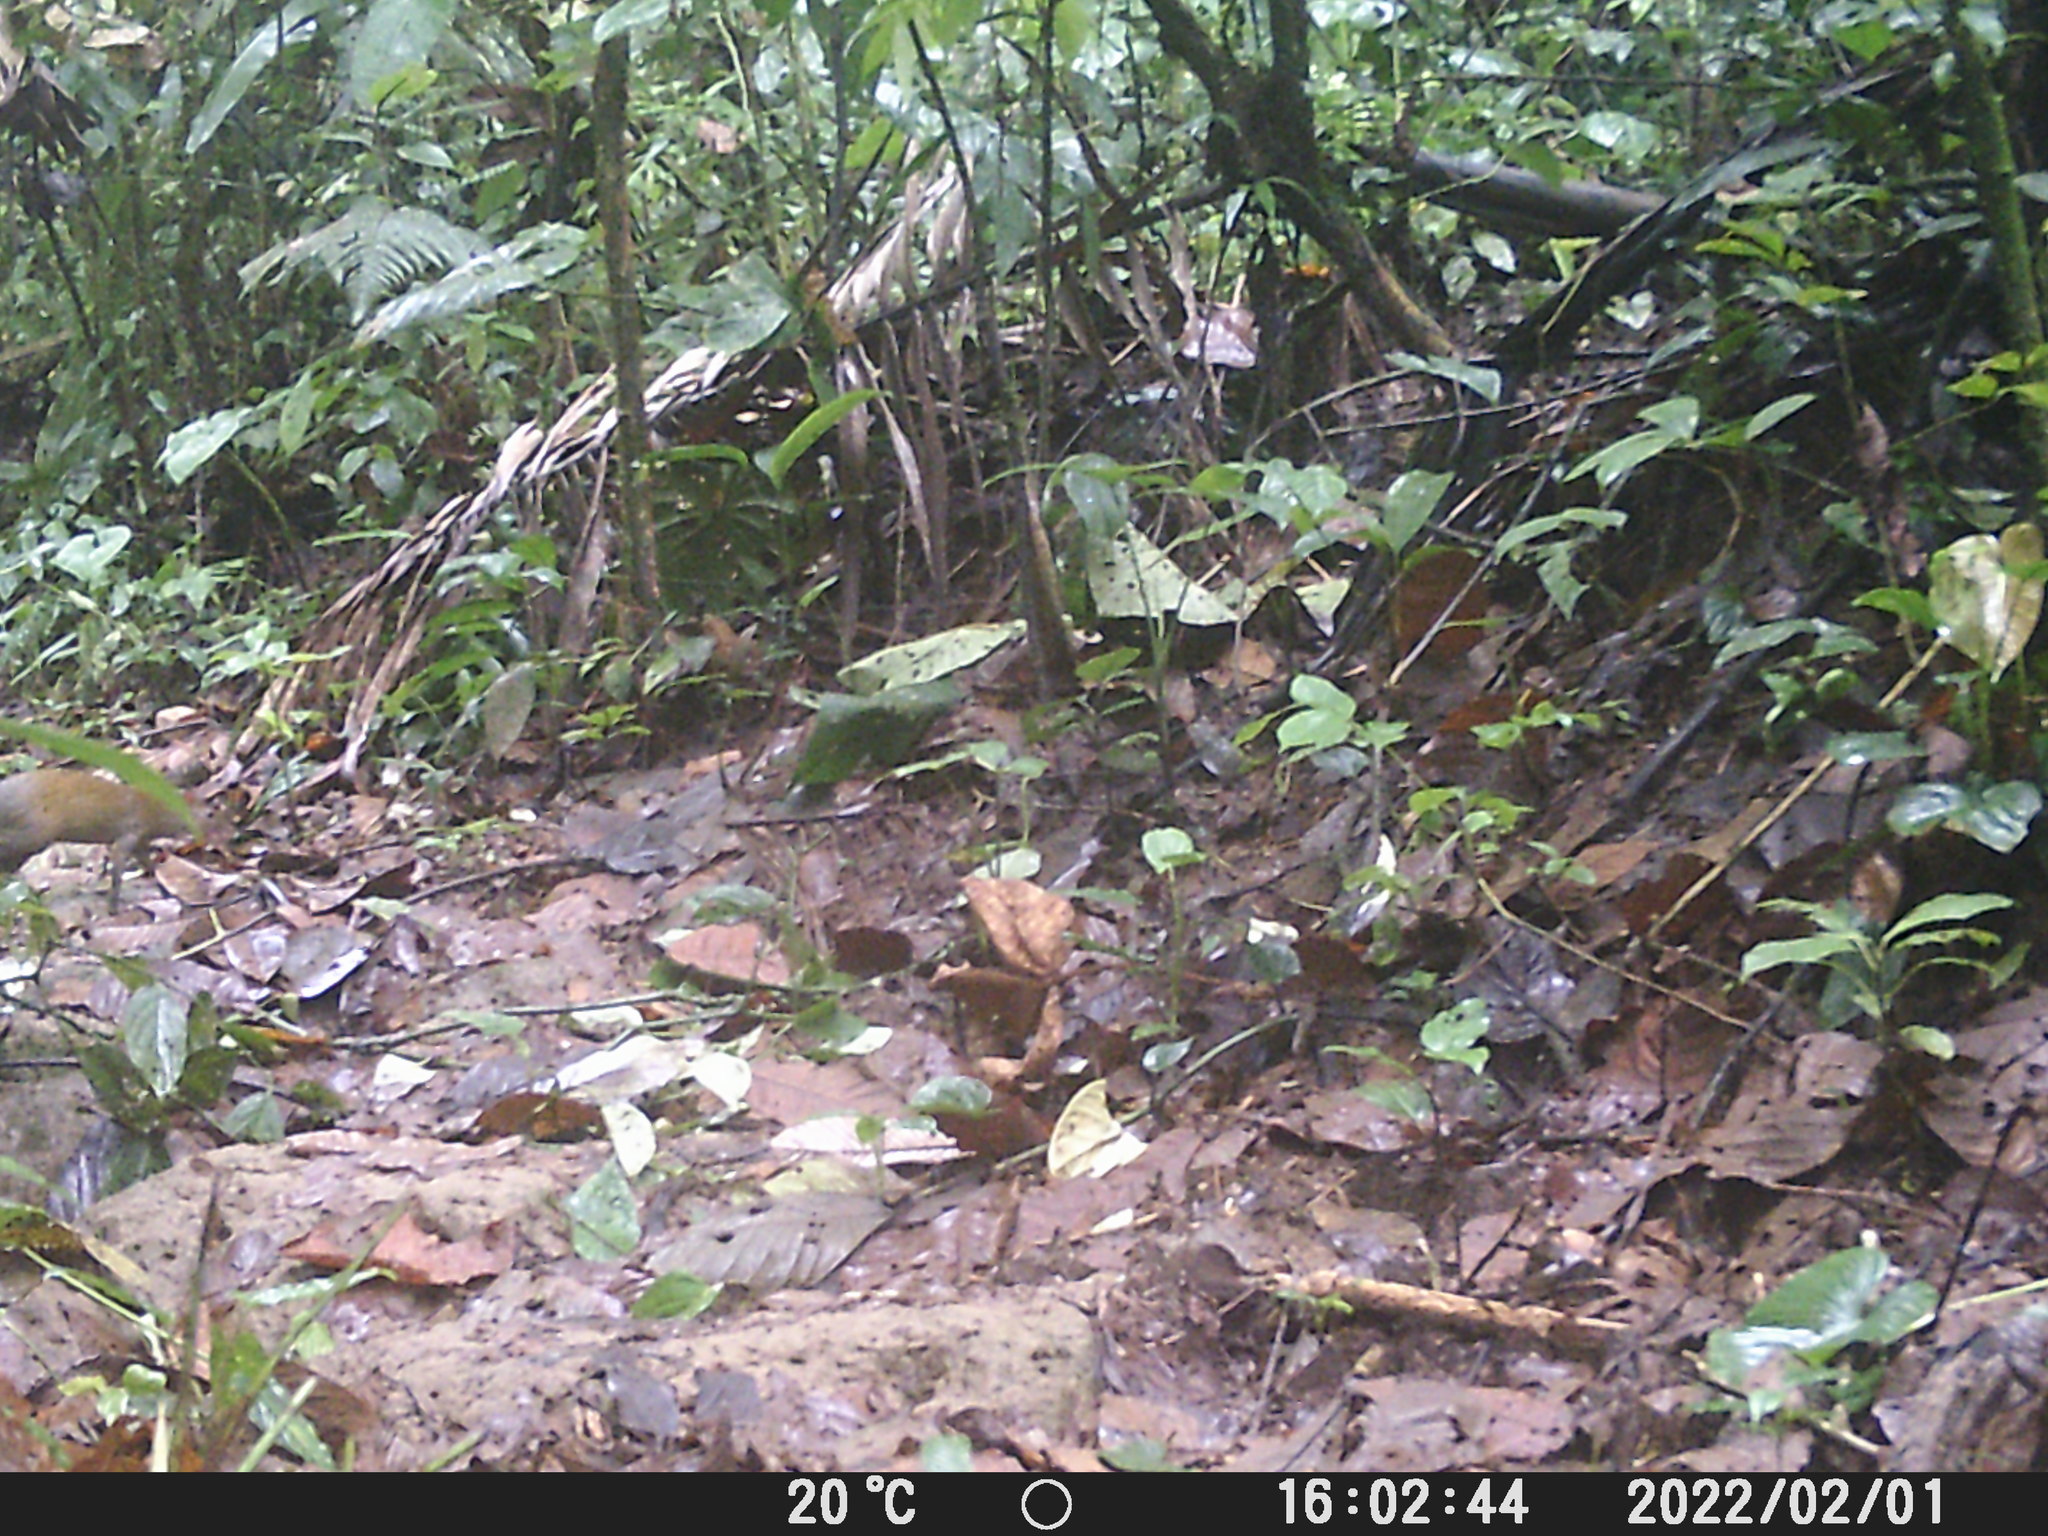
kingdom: Animalia
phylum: Chordata
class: Mammalia
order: Rodentia
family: Dasyproctidae
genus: Dasyprocta
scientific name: Dasyprocta punctata
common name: Central american agouti
